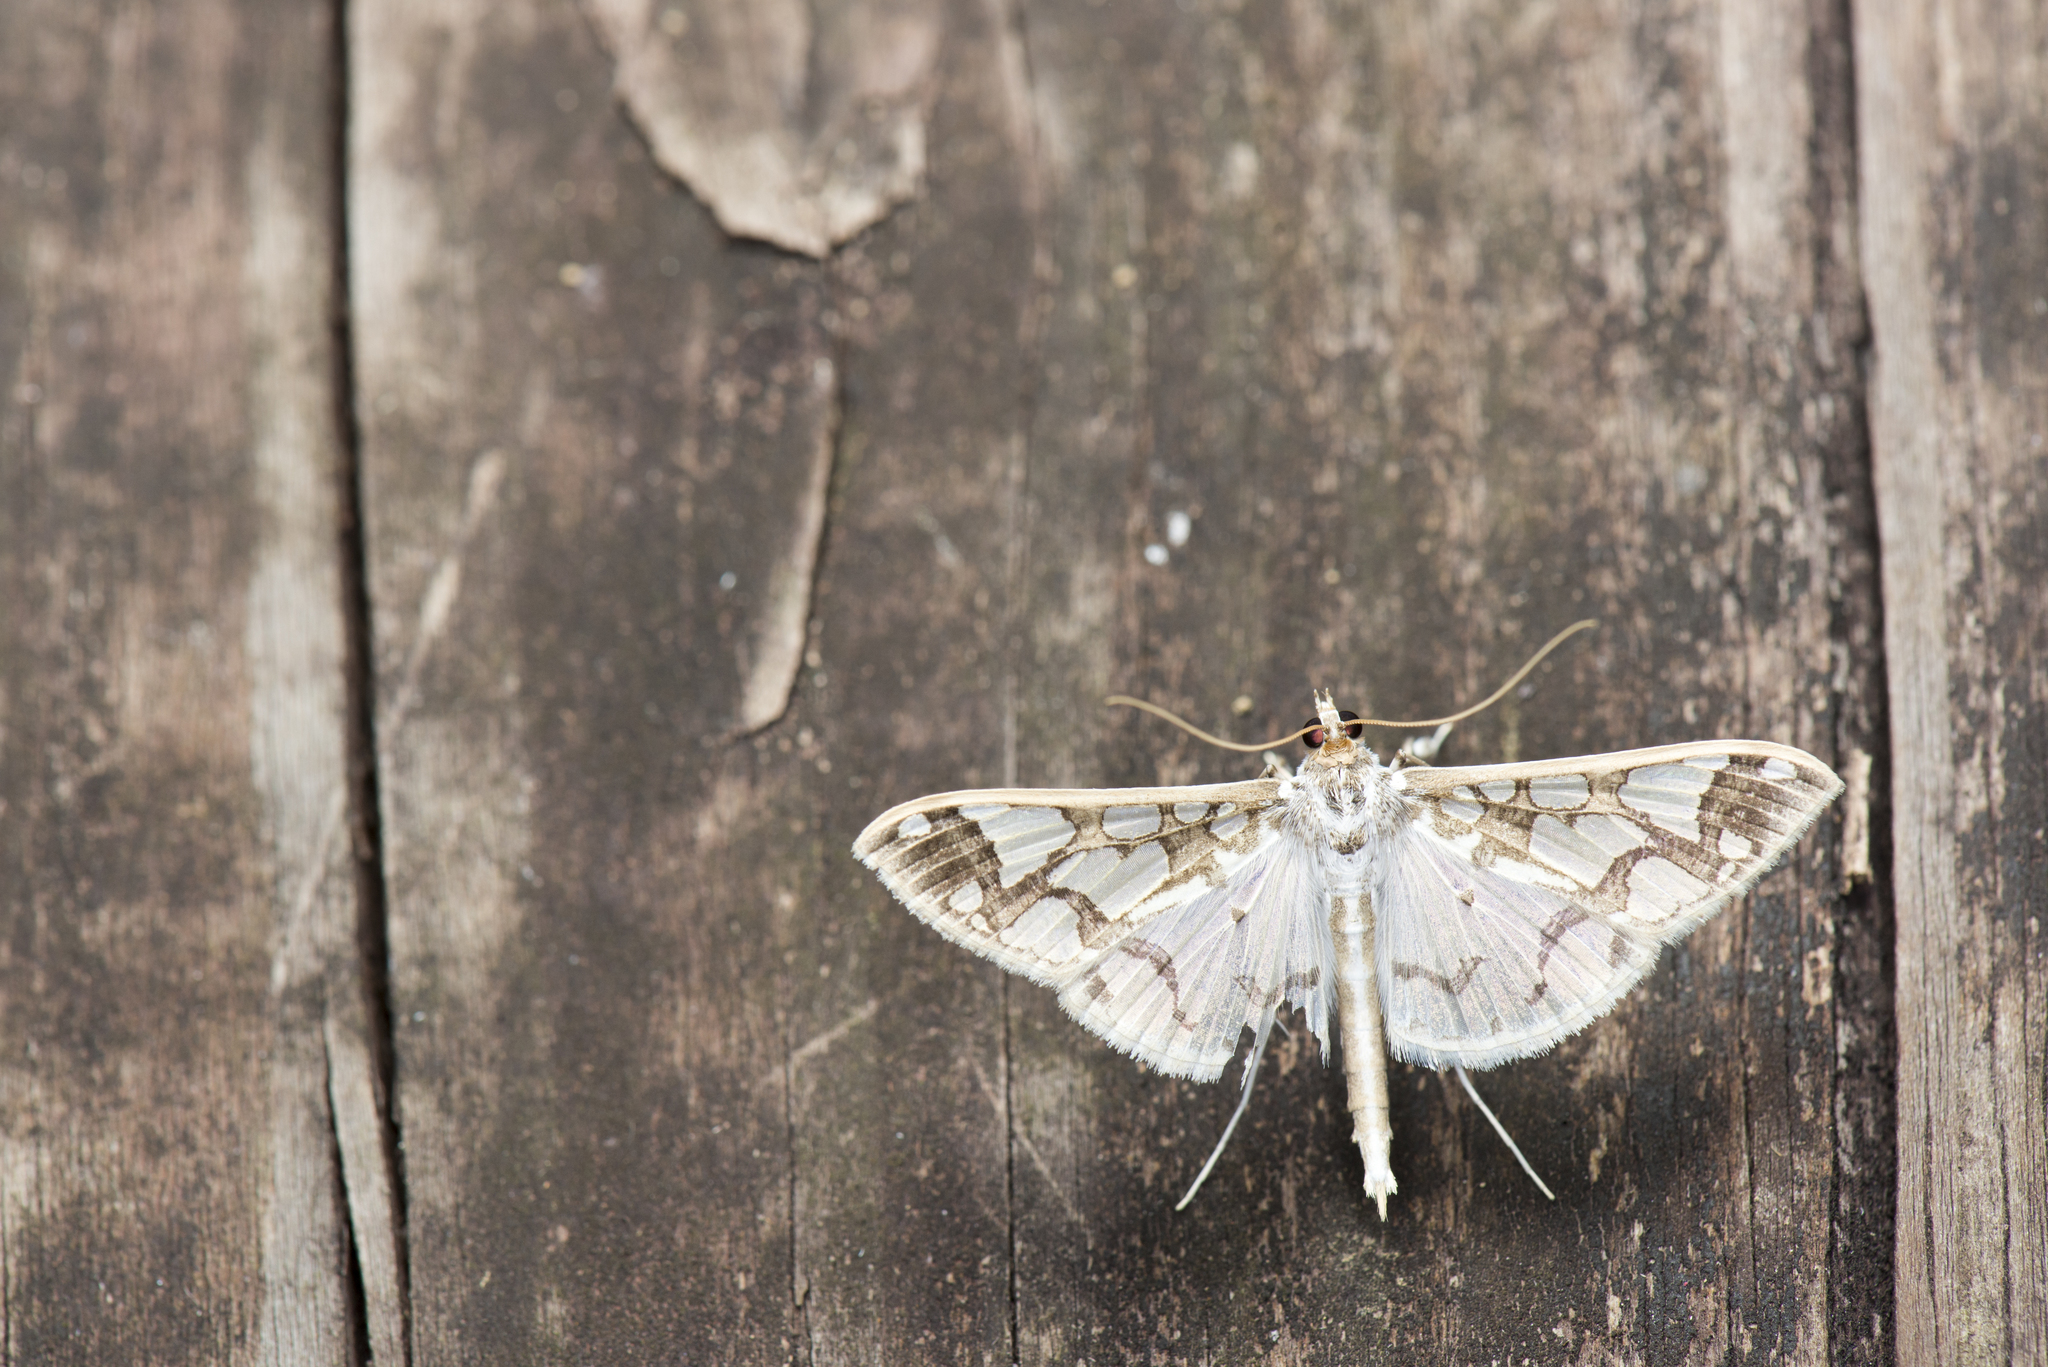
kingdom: Animalia
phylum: Arthropoda
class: Insecta
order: Lepidoptera
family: Crambidae
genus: Polythlipta
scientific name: Polythlipta divaricata
